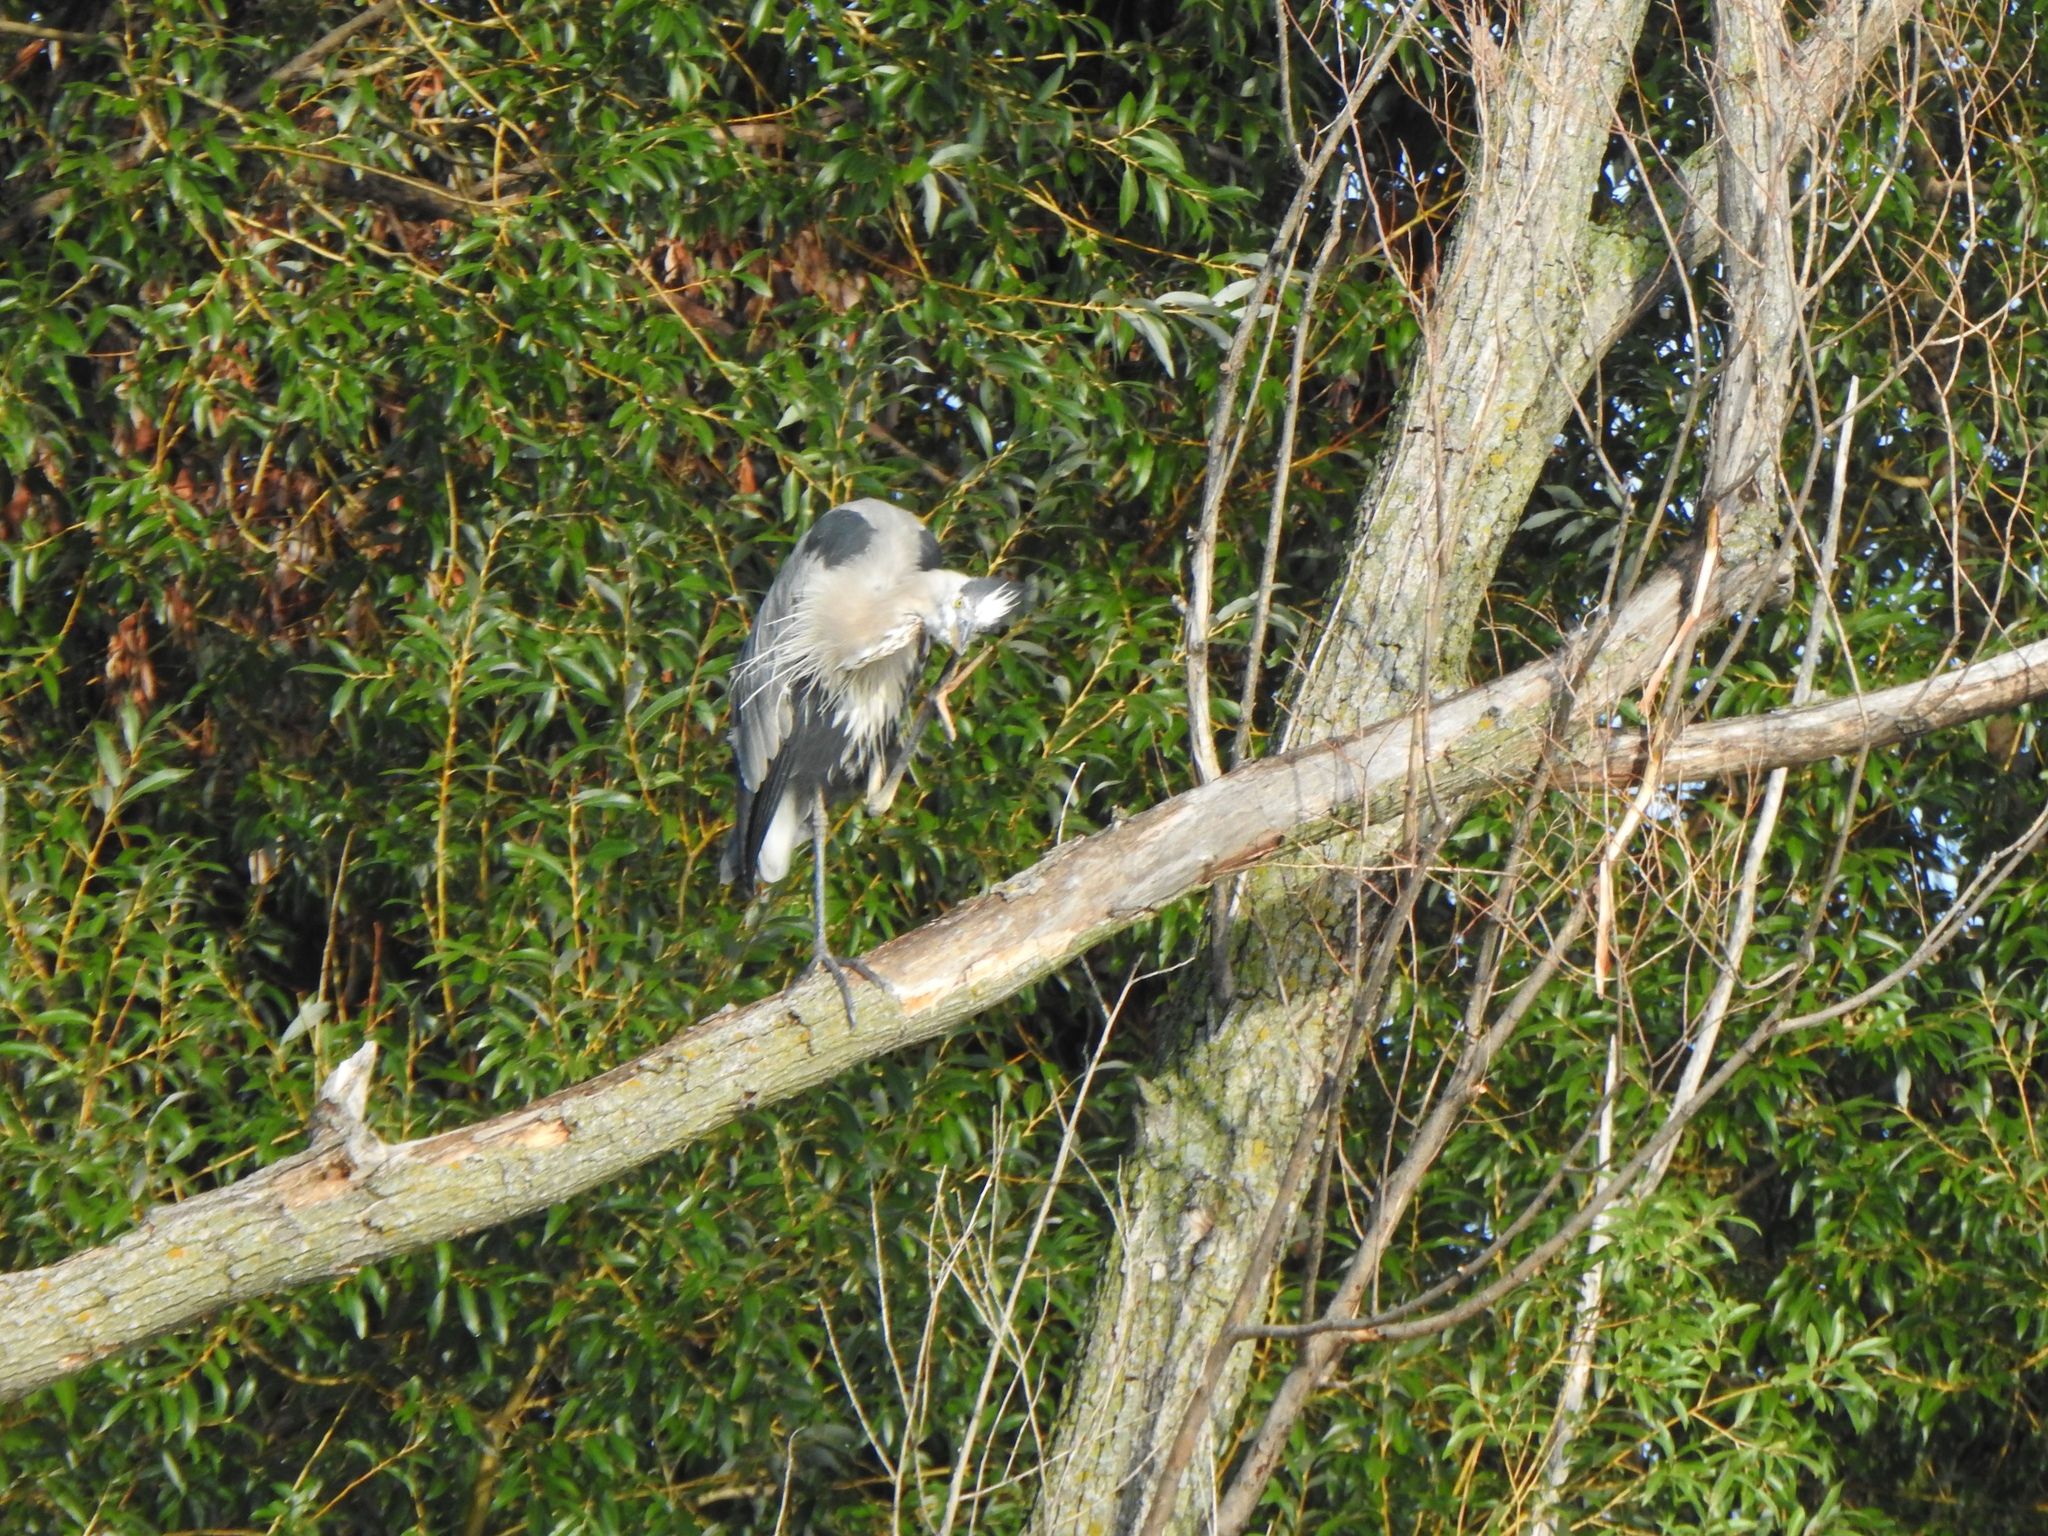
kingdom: Animalia
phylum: Chordata
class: Aves
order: Pelecaniformes
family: Ardeidae
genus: Ardea
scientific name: Ardea herodias
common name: Great blue heron
